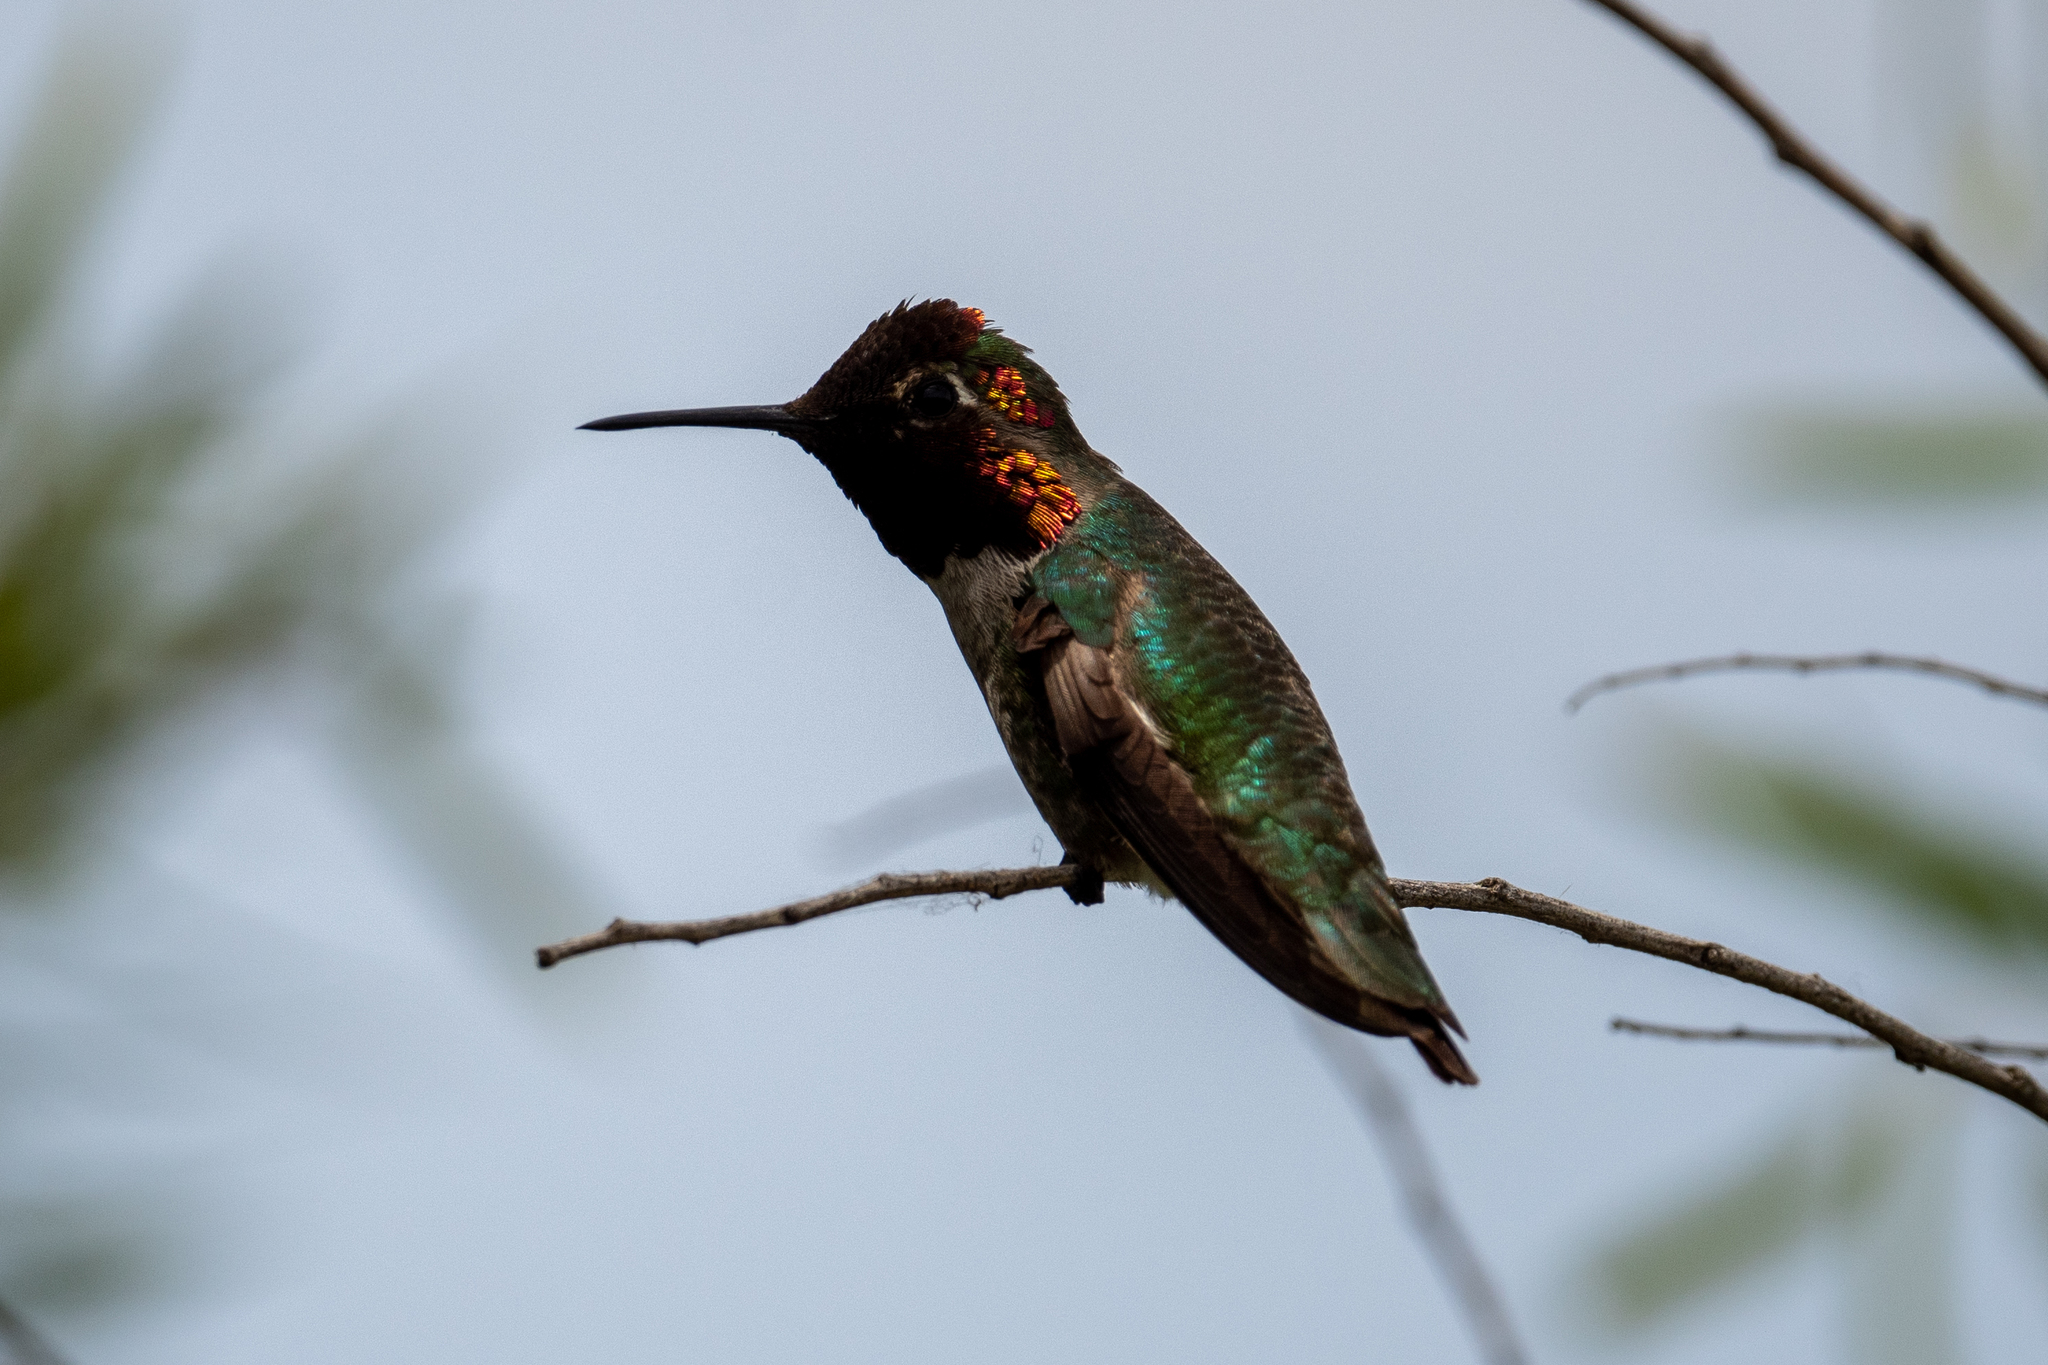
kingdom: Animalia
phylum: Chordata
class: Aves
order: Apodiformes
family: Trochilidae
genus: Calypte
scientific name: Calypte anna
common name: Anna's hummingbird
